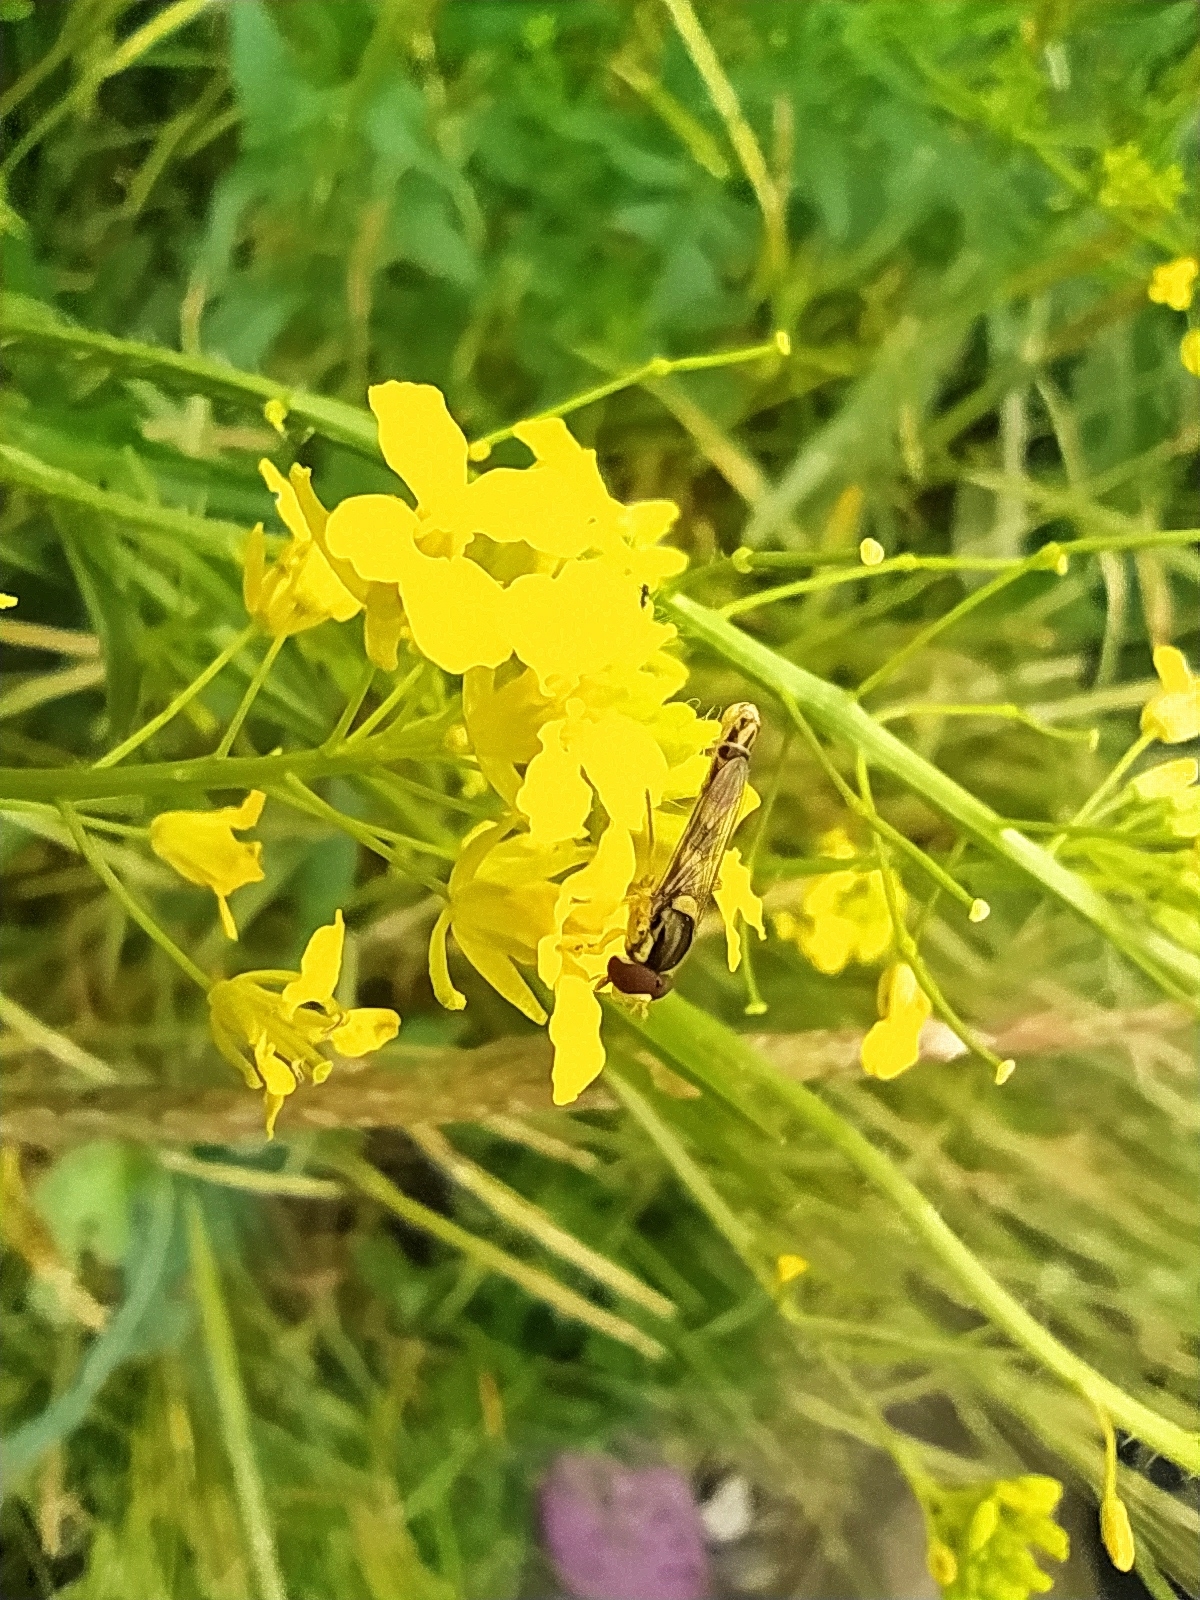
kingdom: Plantae
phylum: Tracheophyta
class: Magnoliopsida
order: Brassicales
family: Brassicaceae
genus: Sisymbrium
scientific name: Sisymbrium loeselii
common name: False london-rocket
